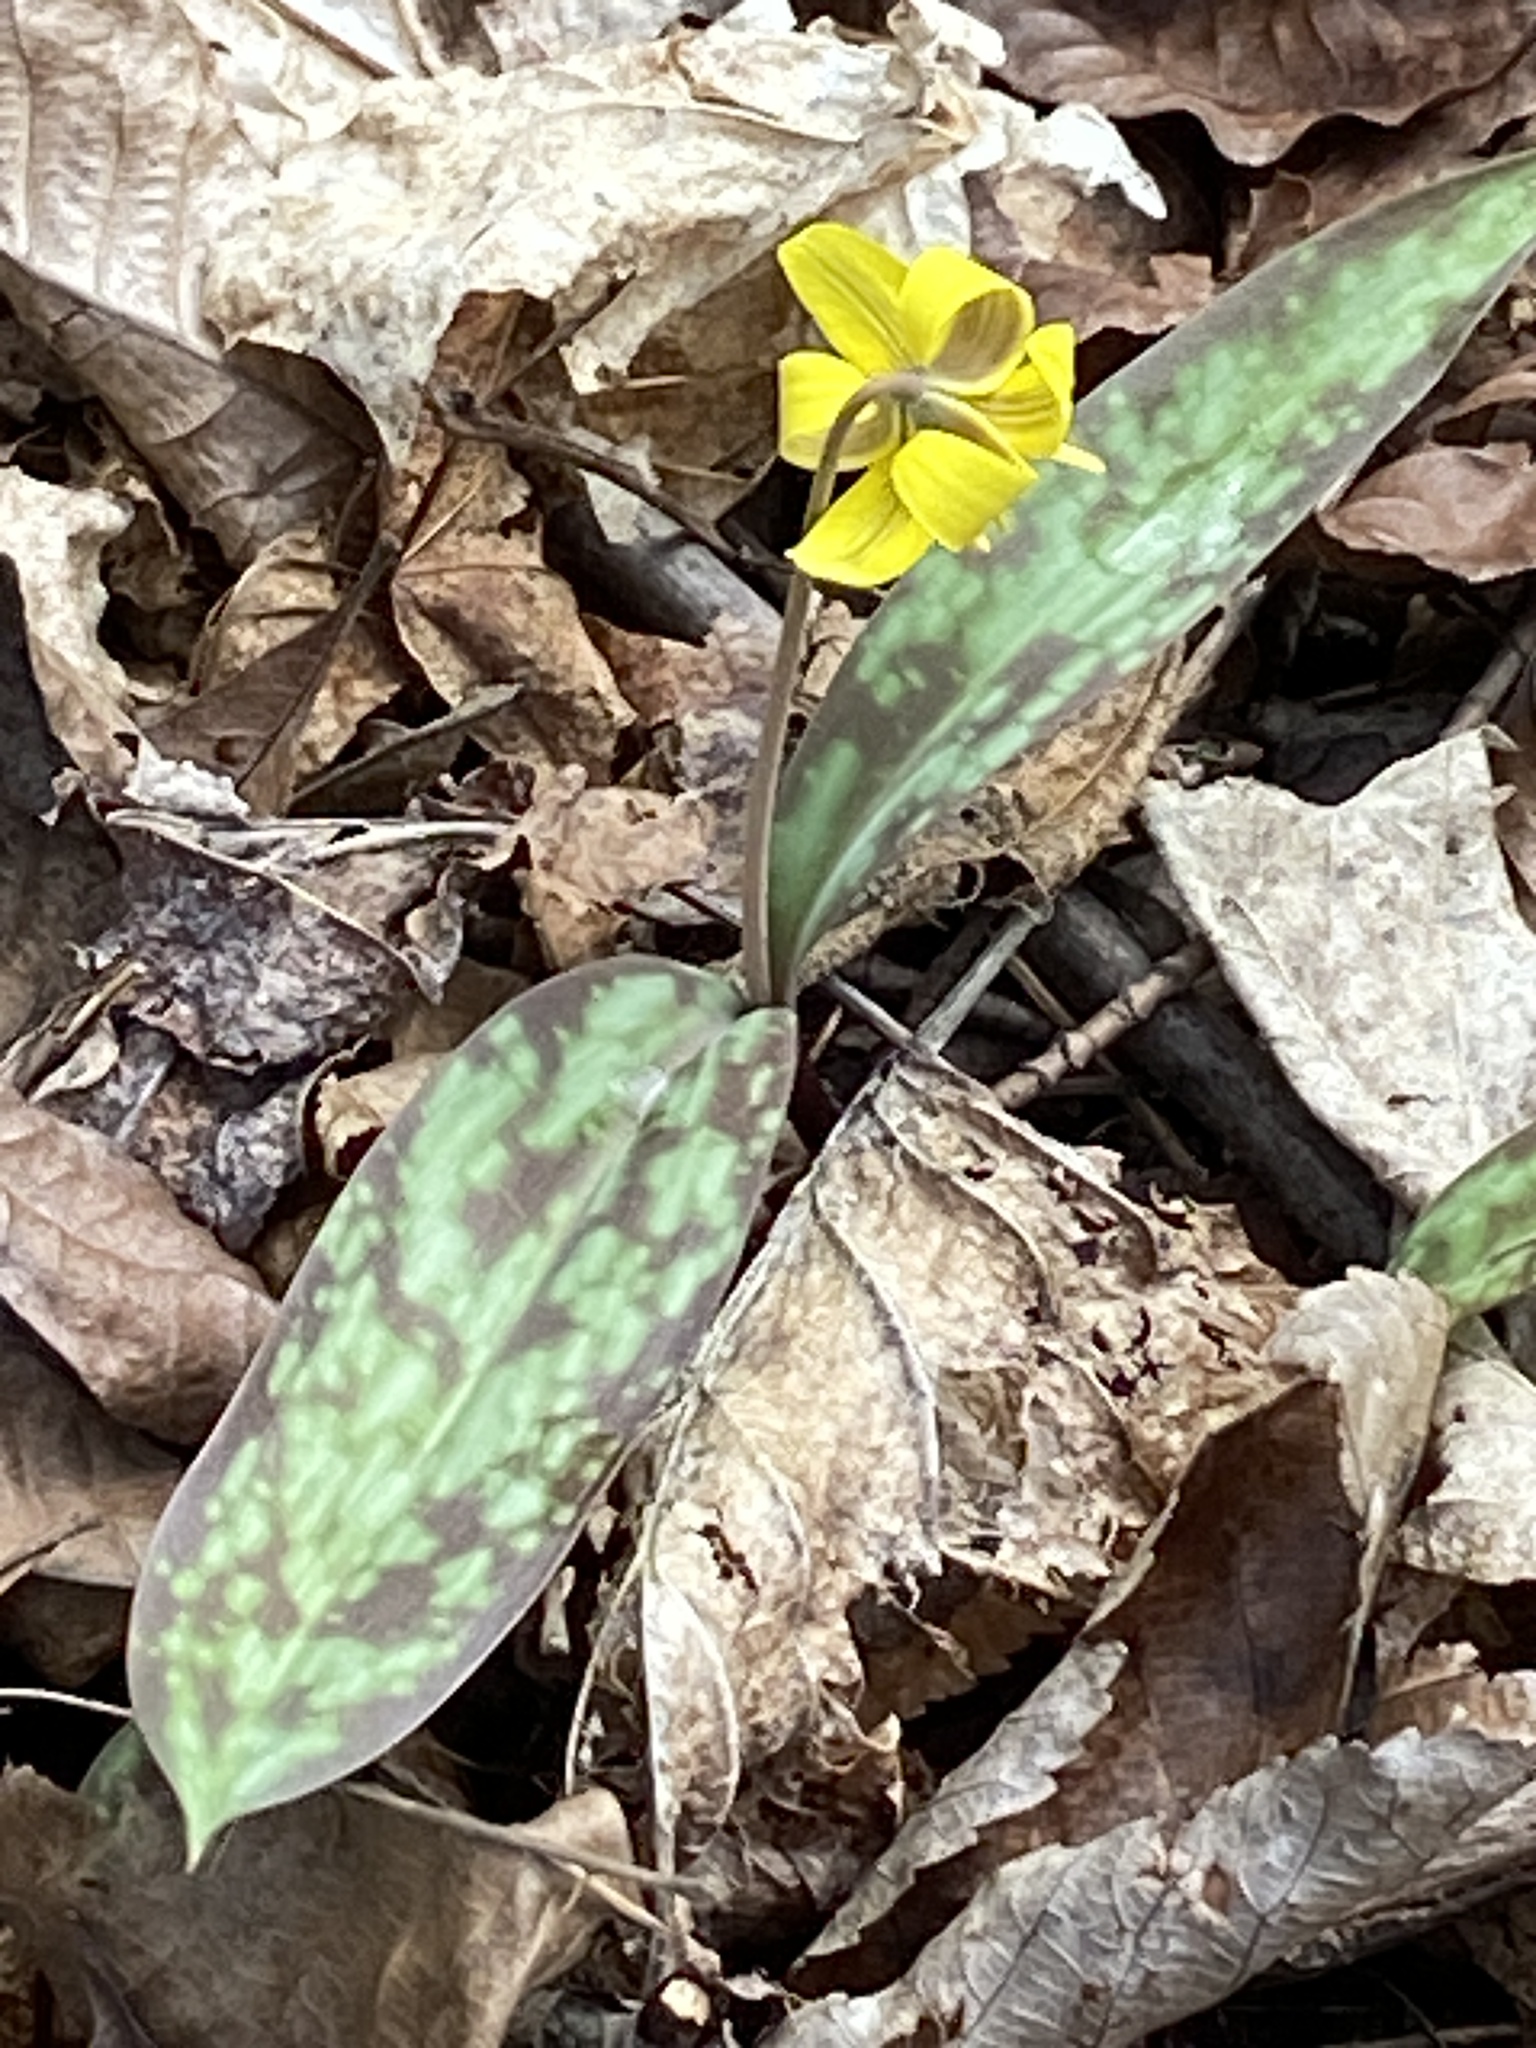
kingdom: Plantae
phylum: Tracheophyta
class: Liliopsida
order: Liliales
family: Liliaceae
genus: Erythronium
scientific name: Erythronium americanum
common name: Yellow adder's-tongue
